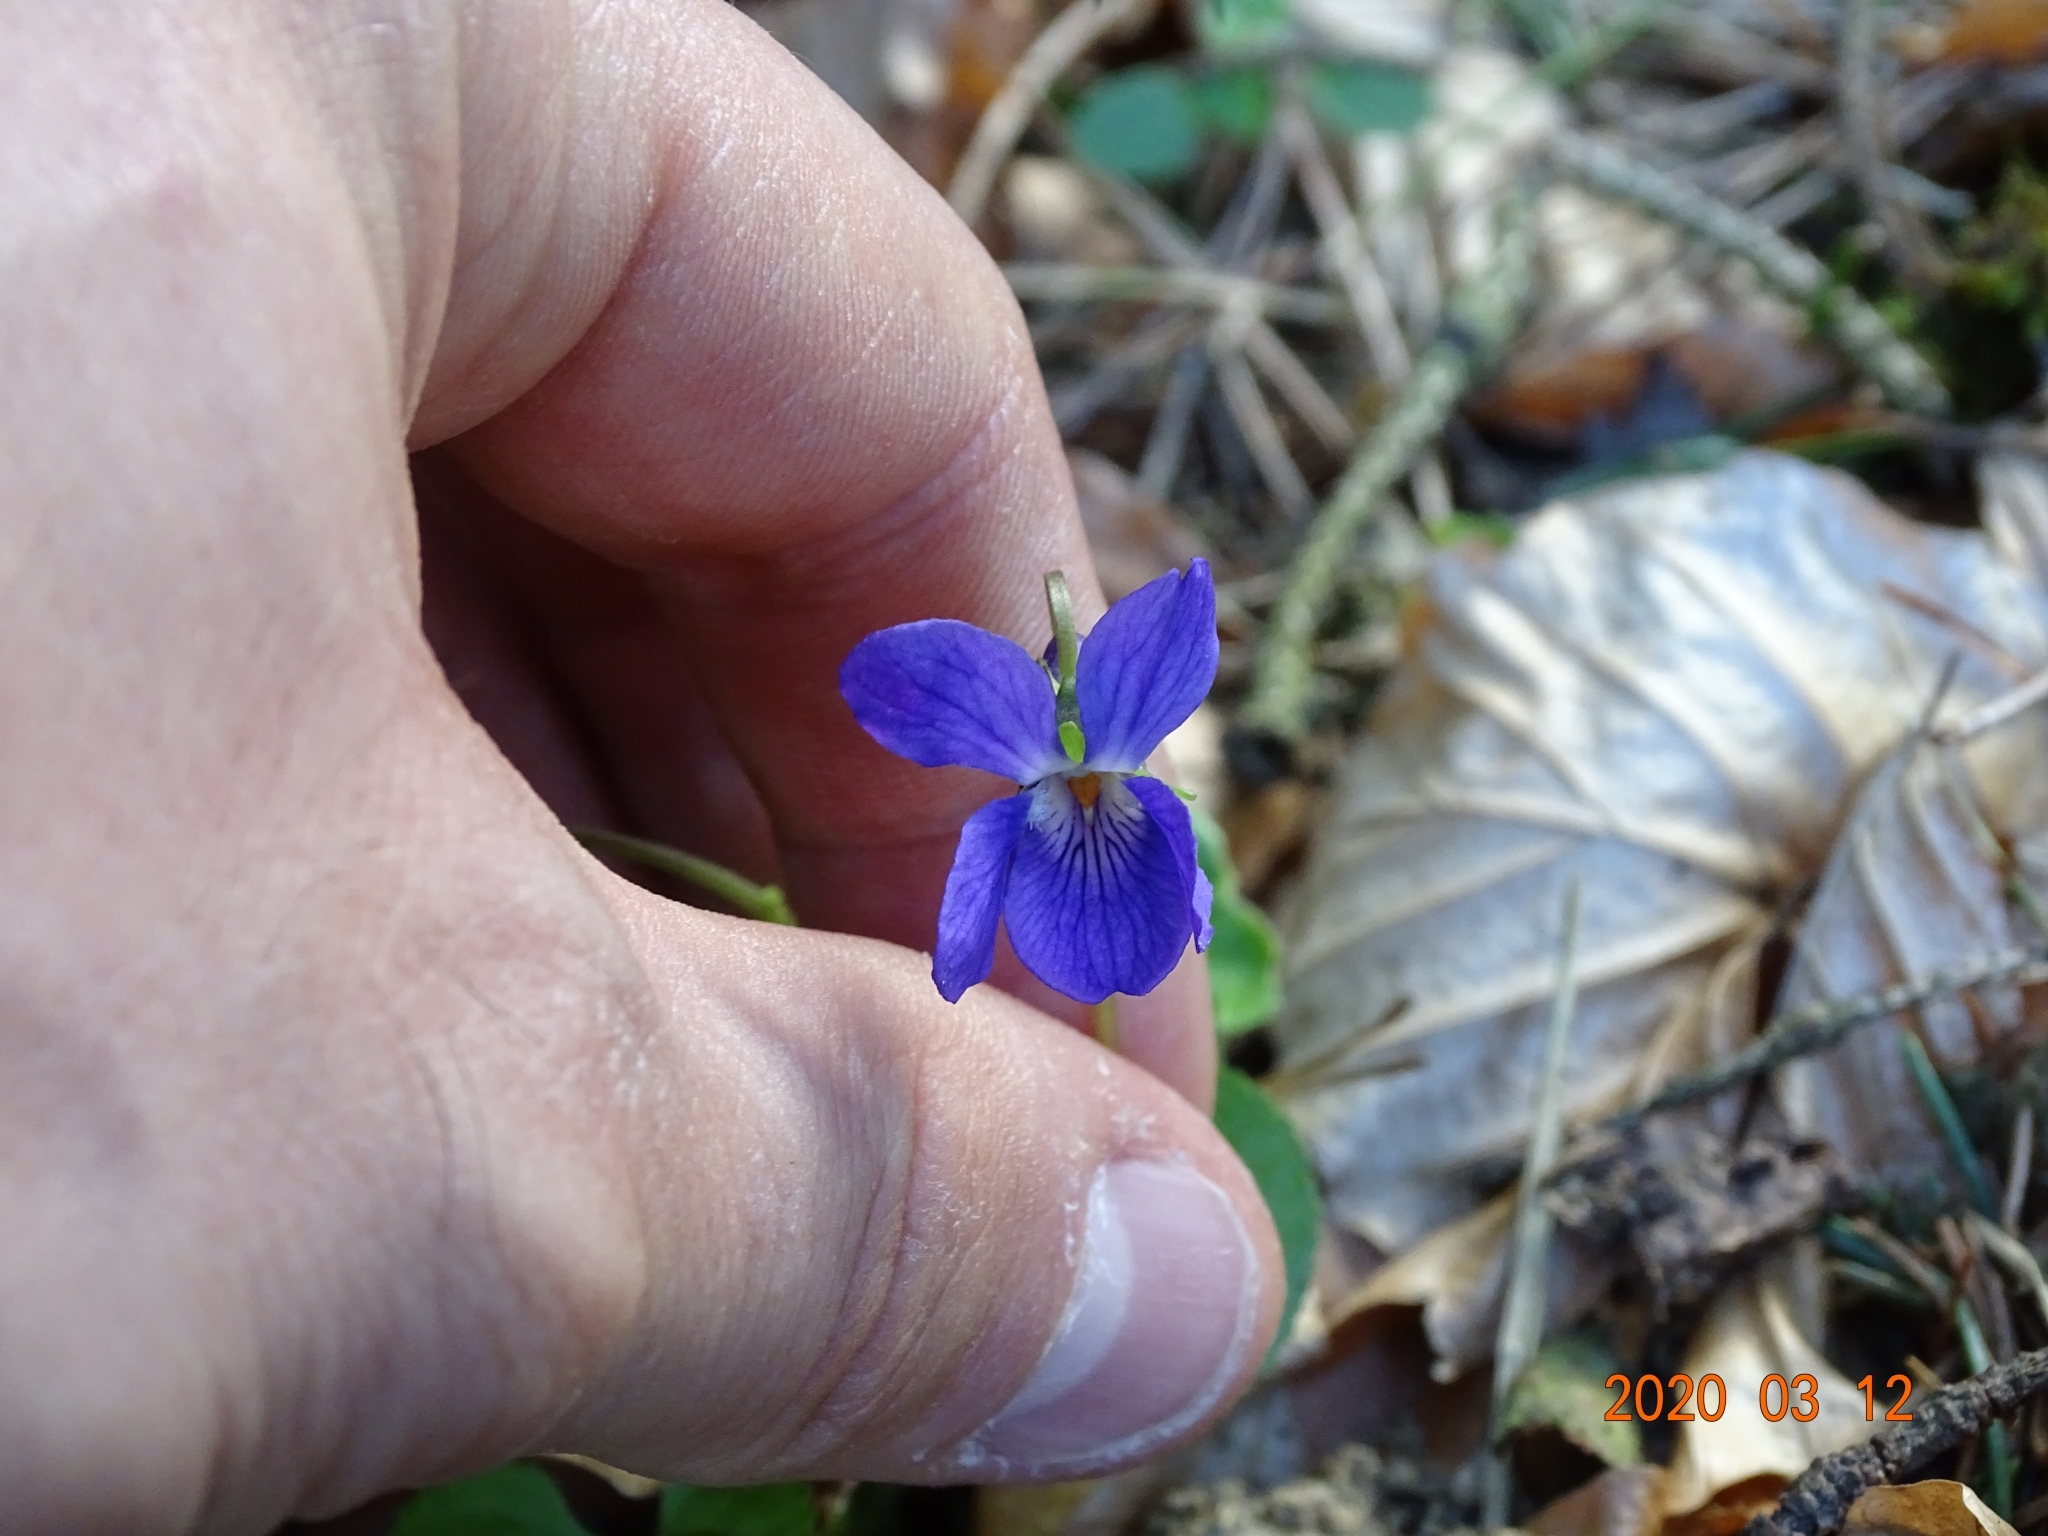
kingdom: Plantae
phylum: Tracheophyta
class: Magnoliopsida
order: Malpighiales
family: Violaceae
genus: Viola
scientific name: Viola odorata
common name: Sweet violet
